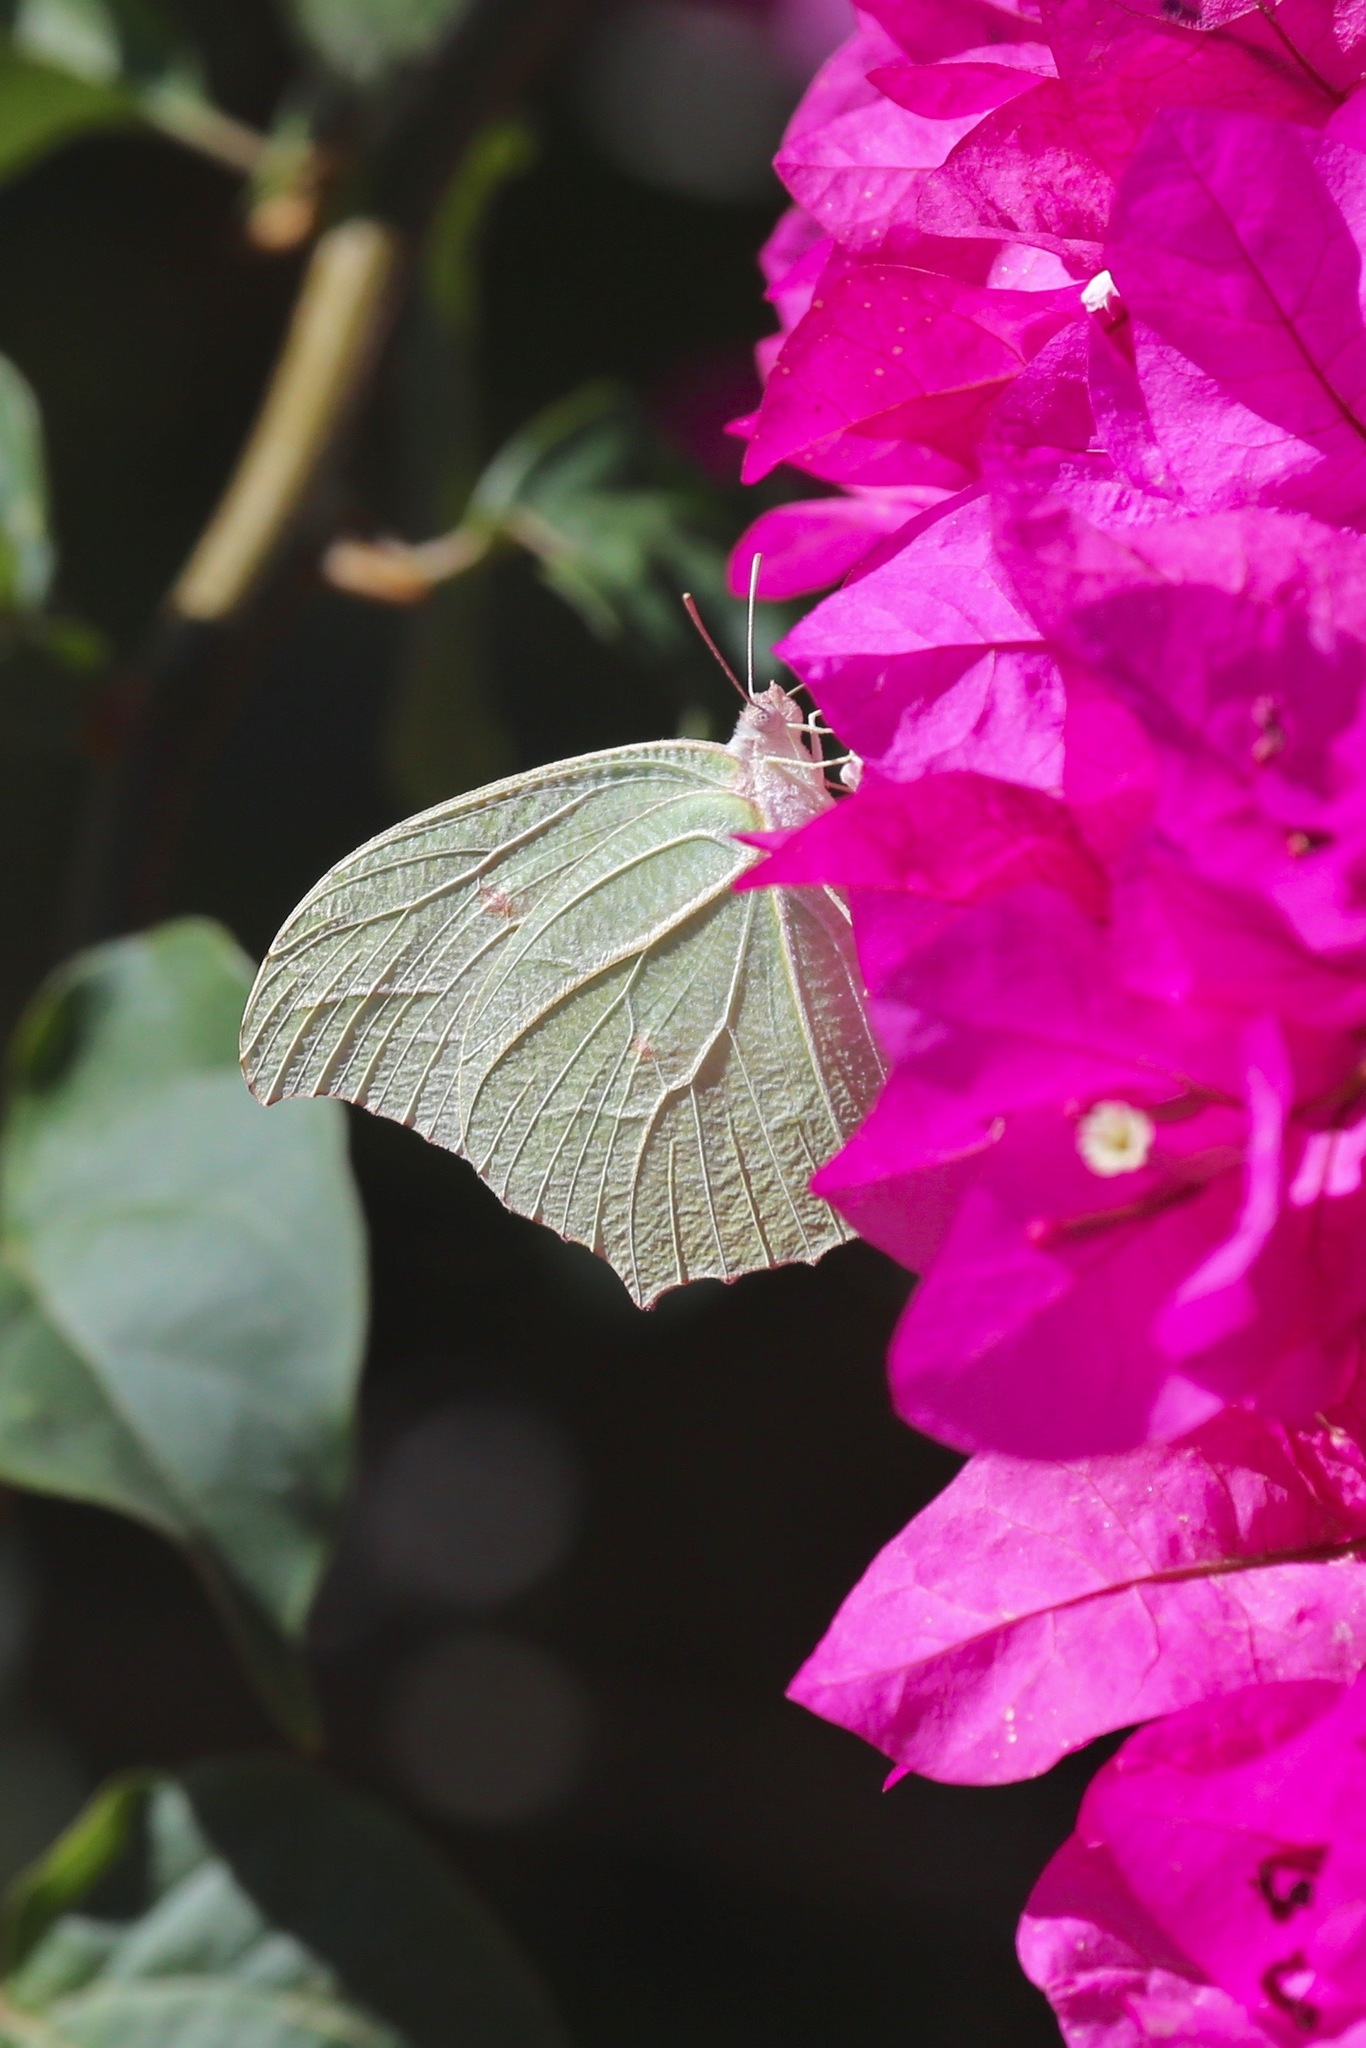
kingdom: Animalia
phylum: Arthropoda
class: Insecta
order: Lepidoptera
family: Pieridae
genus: Anteos
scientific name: Anteos clorinde
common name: White angled sulphur
